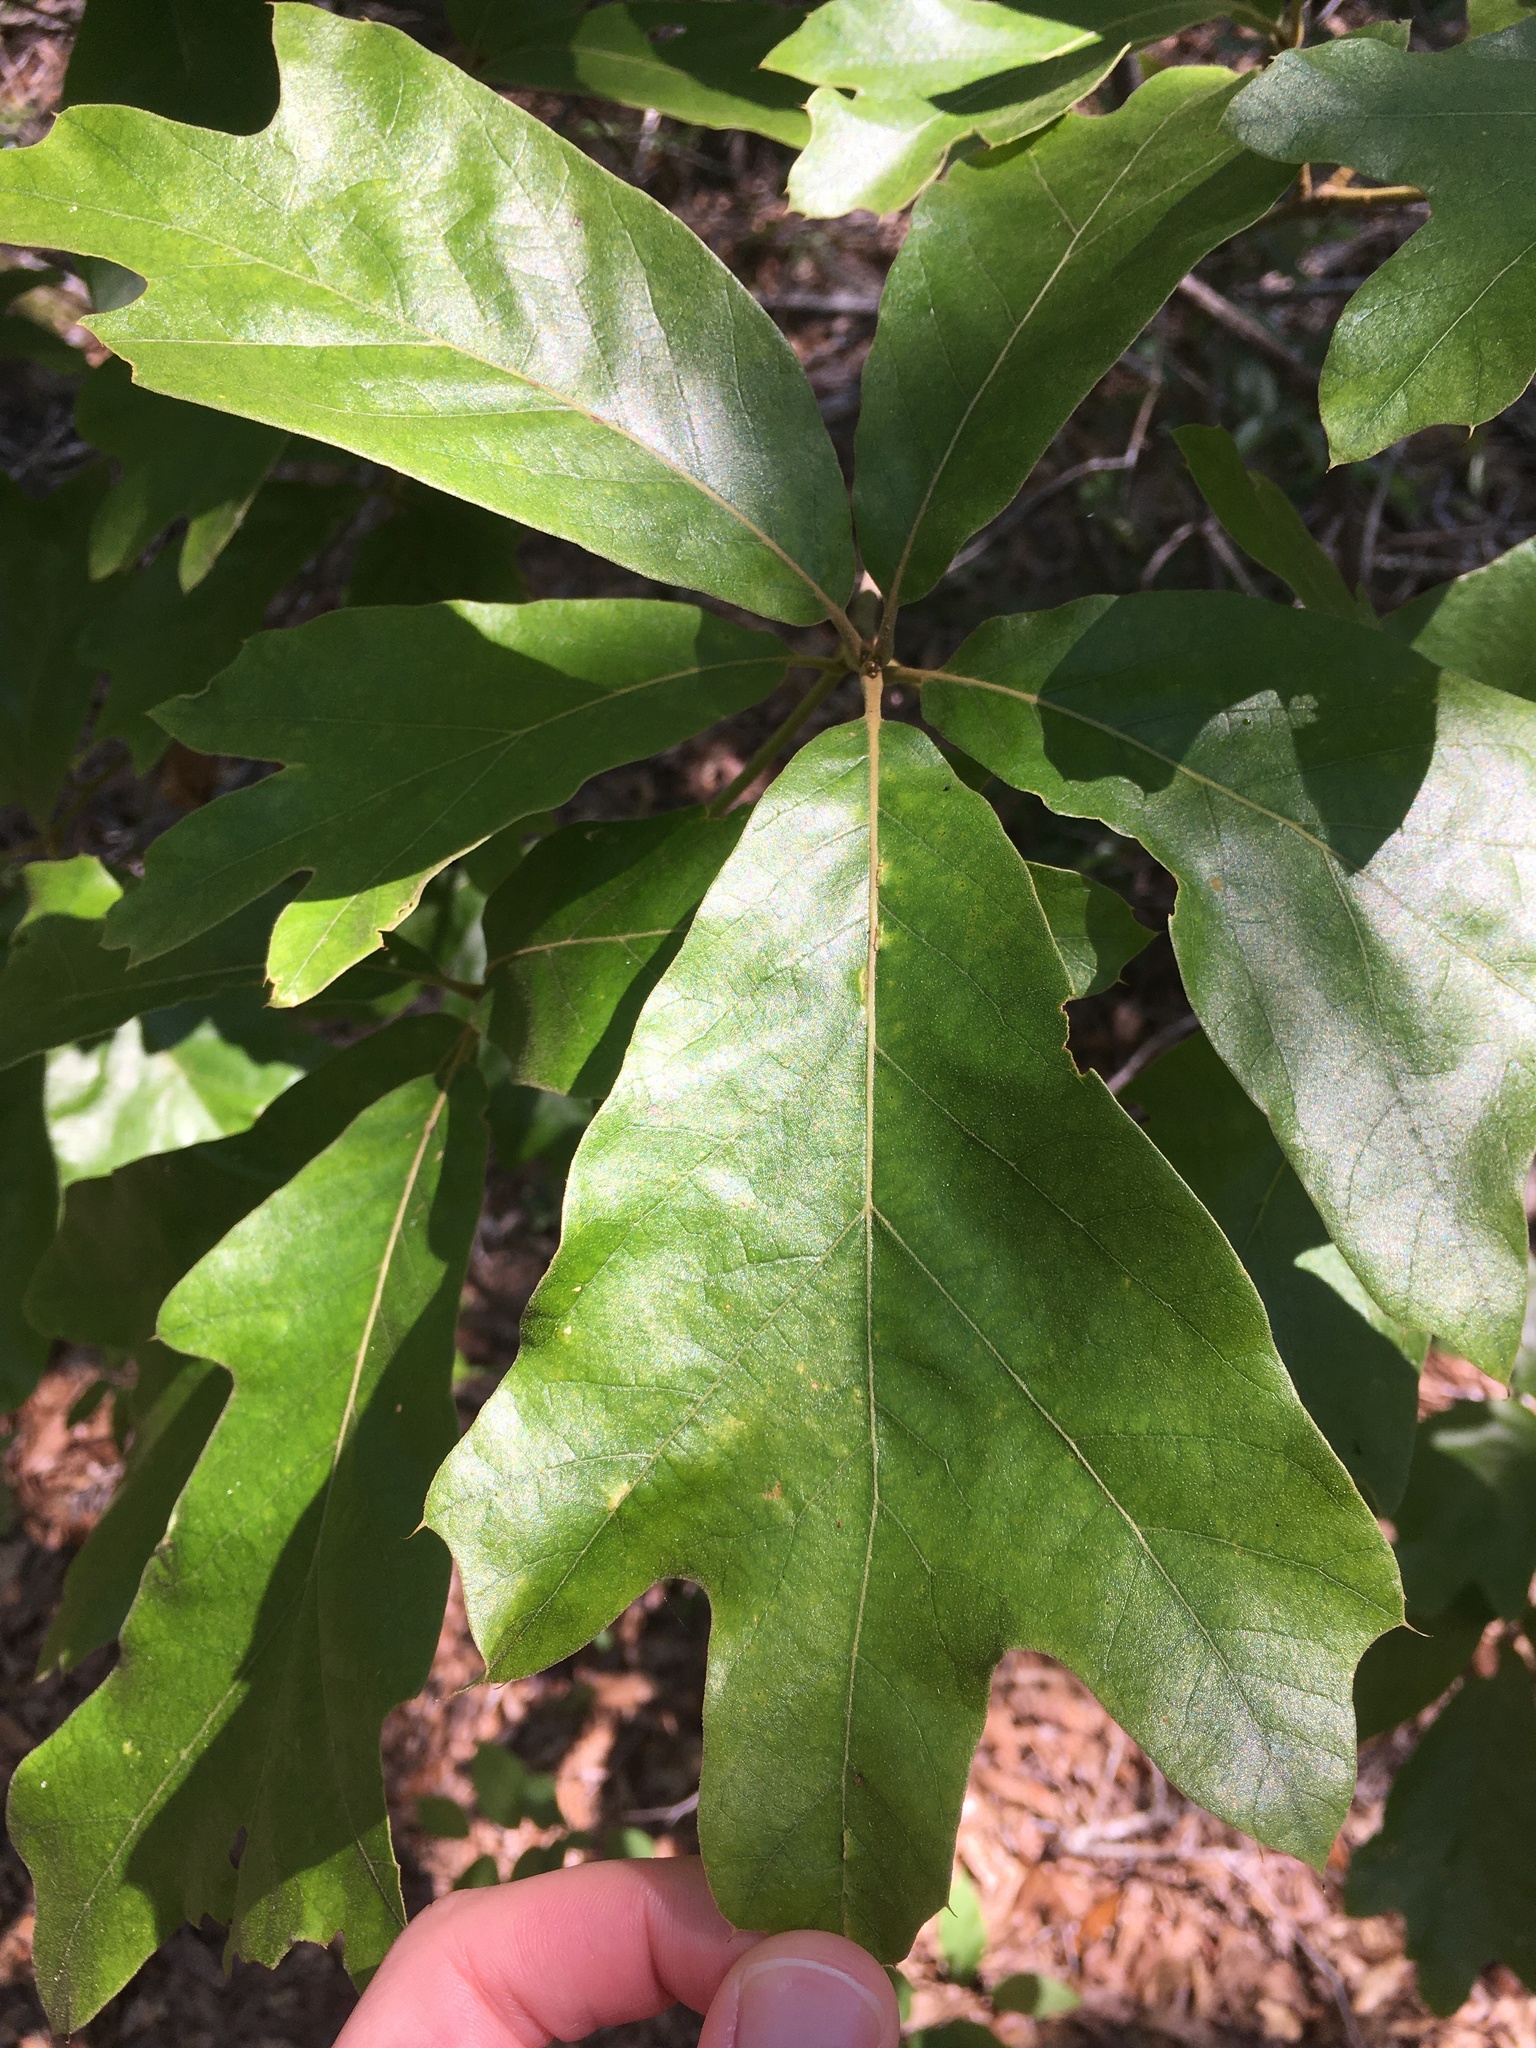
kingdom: Plantae
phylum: Tracheophyta
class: Magnoliopsida
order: Fagales
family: Fagaceae
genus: Quercus
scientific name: Quercus marilandica
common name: Blackjack oak
